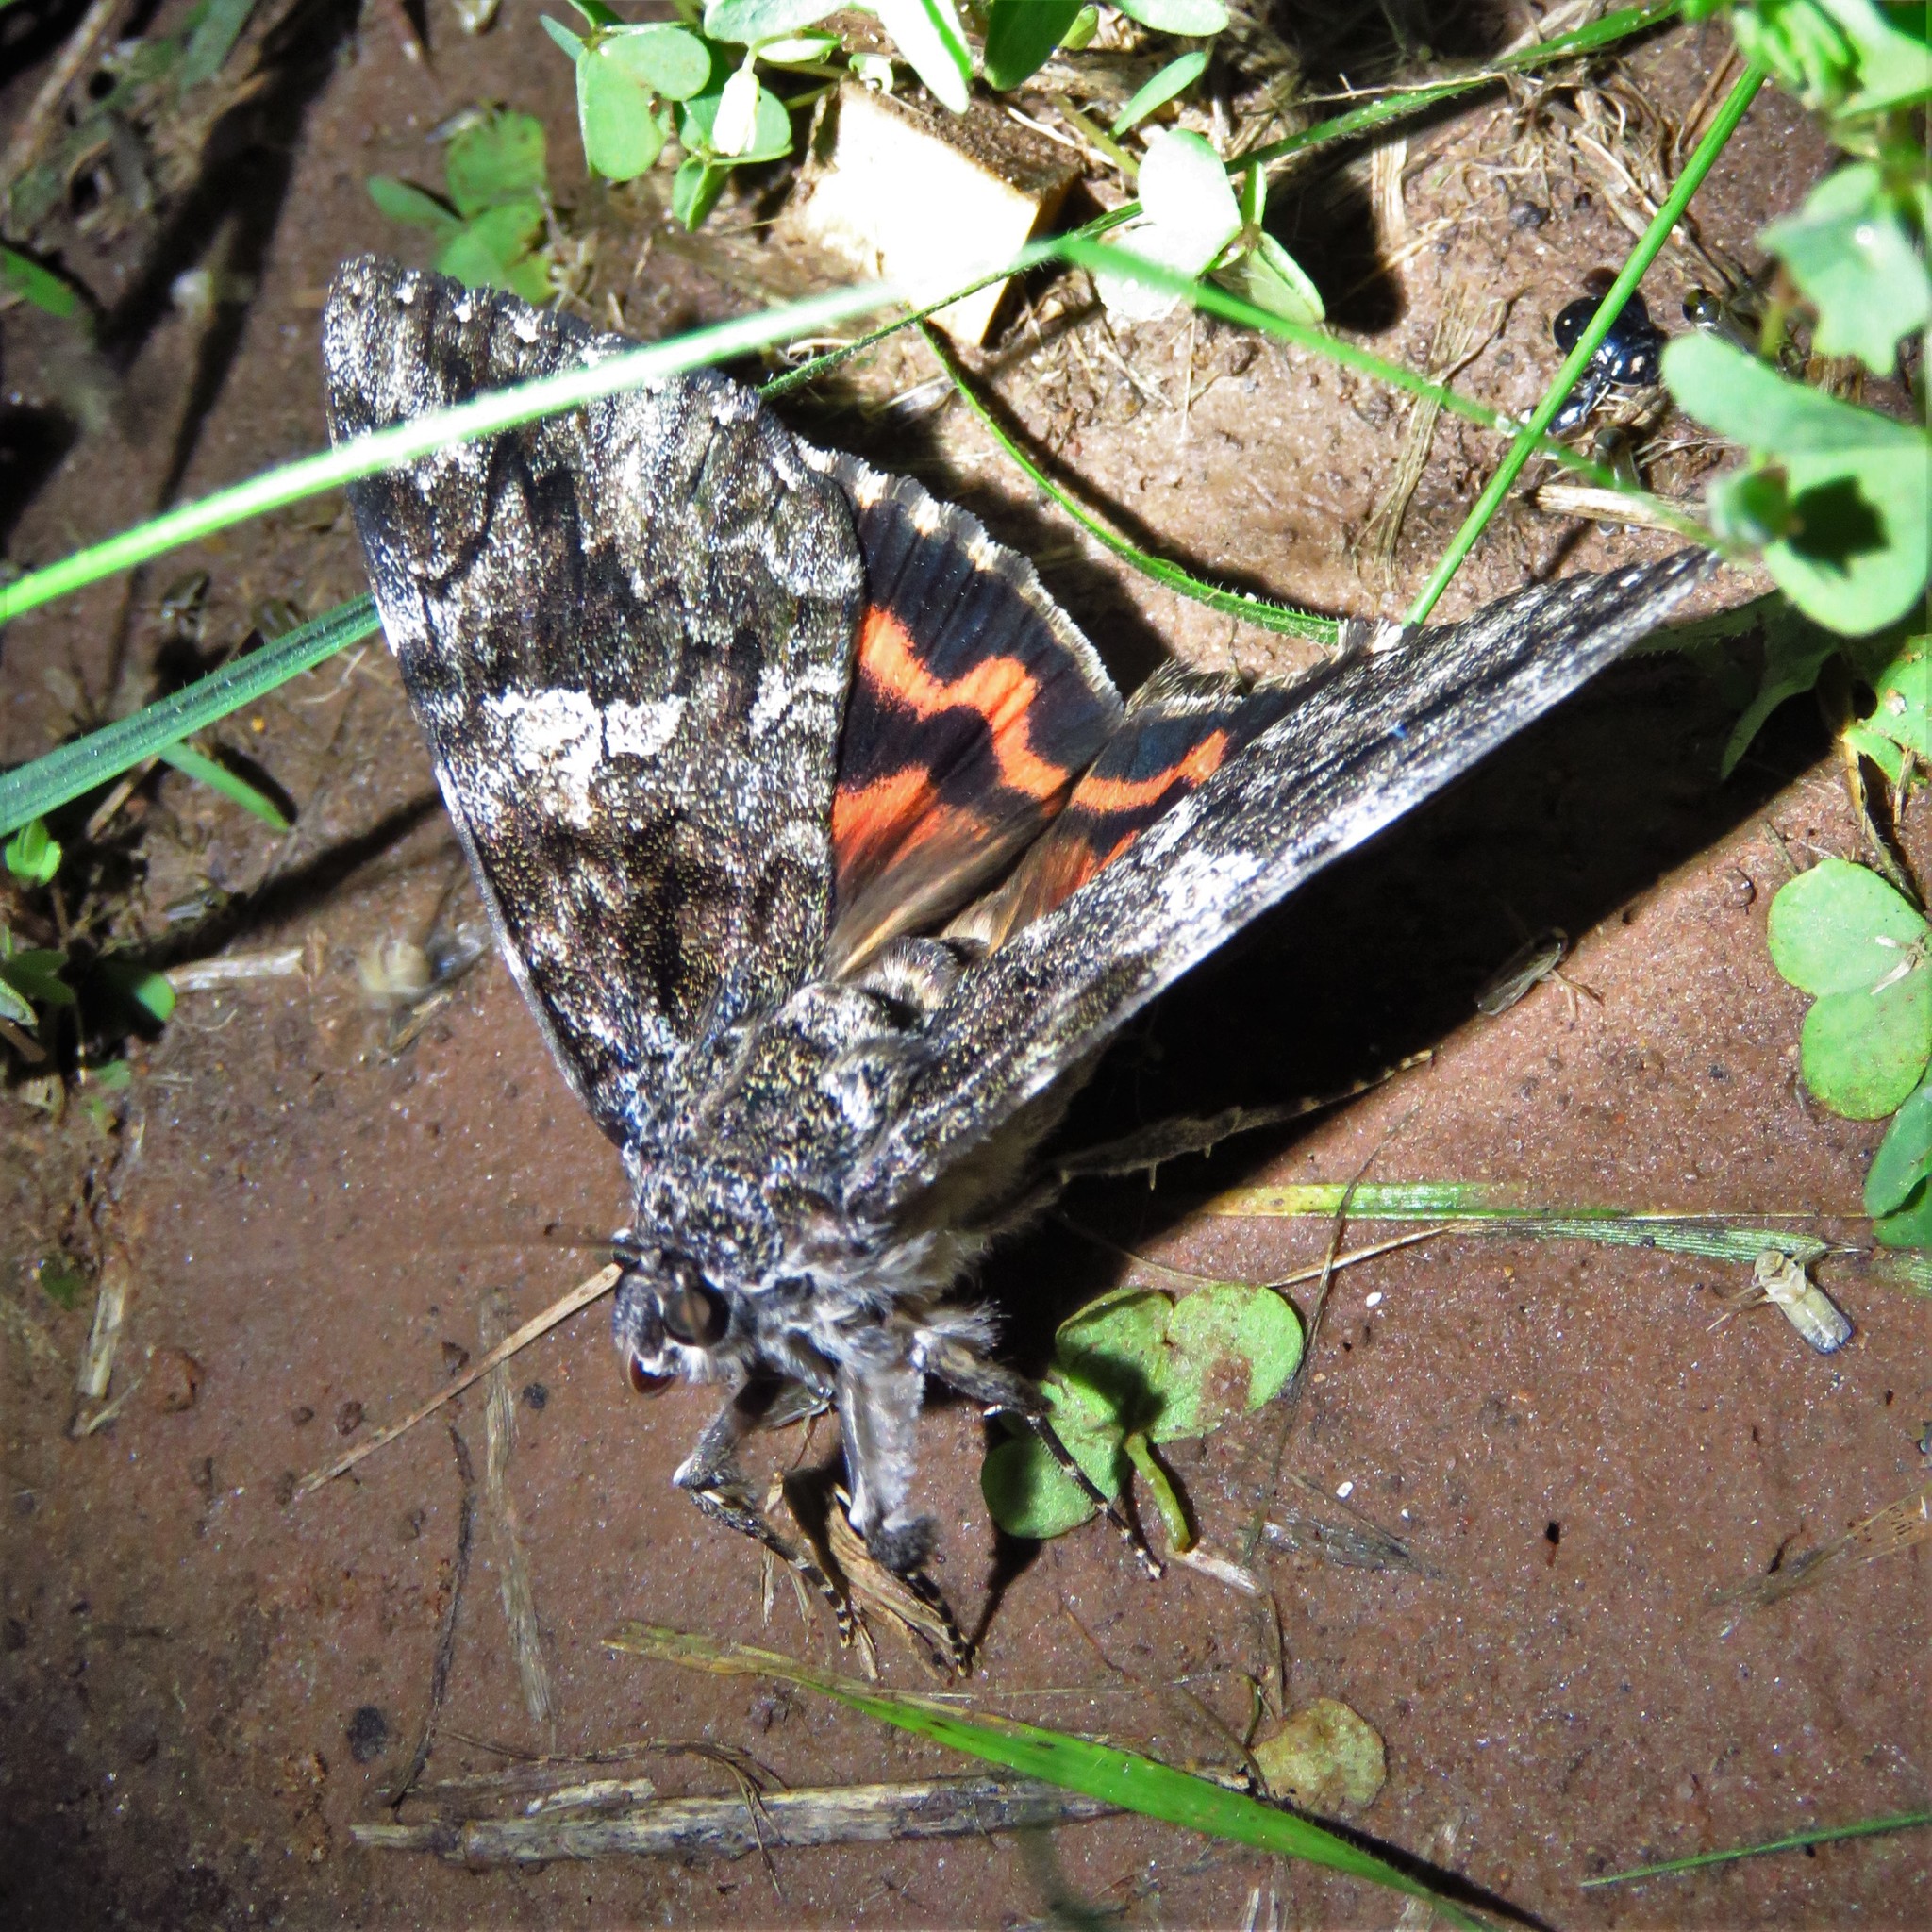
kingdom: Animalia
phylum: Arthropoda
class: Insecta
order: Lepidoptera
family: Erebidae
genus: Catocala
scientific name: Catocala ilia
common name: Ilia underwing
